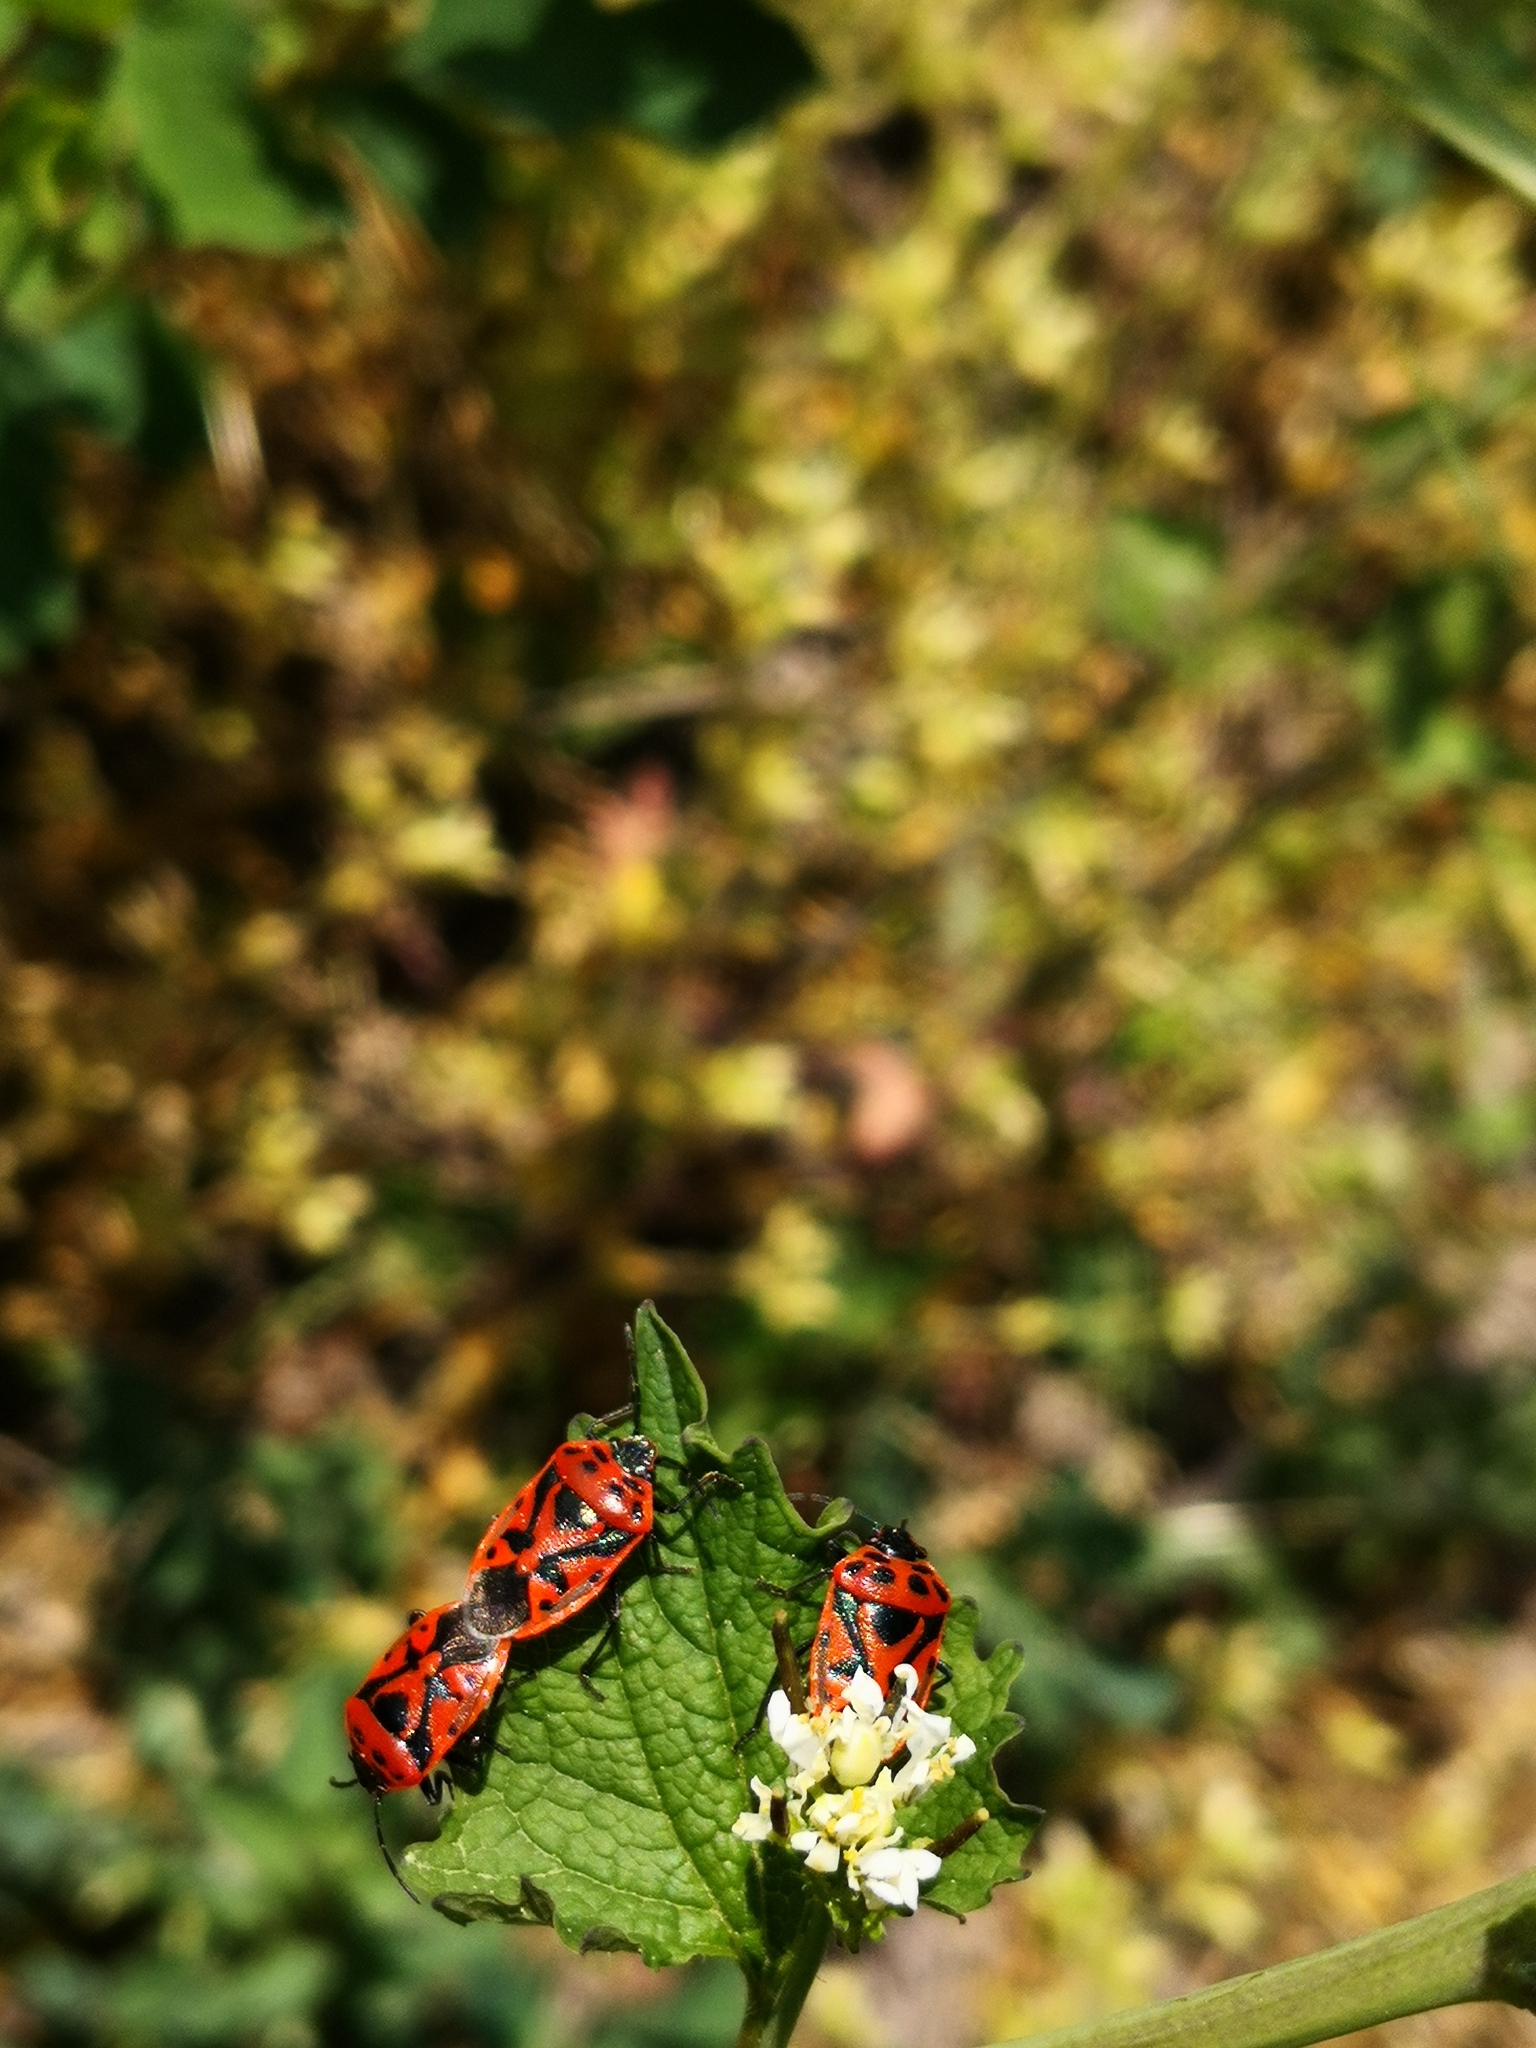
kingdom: Animalia
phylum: Arthropoda
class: Insecta
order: Hemiptera
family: Pentatomidae
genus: Eurydema
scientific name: Eurydema ornata
